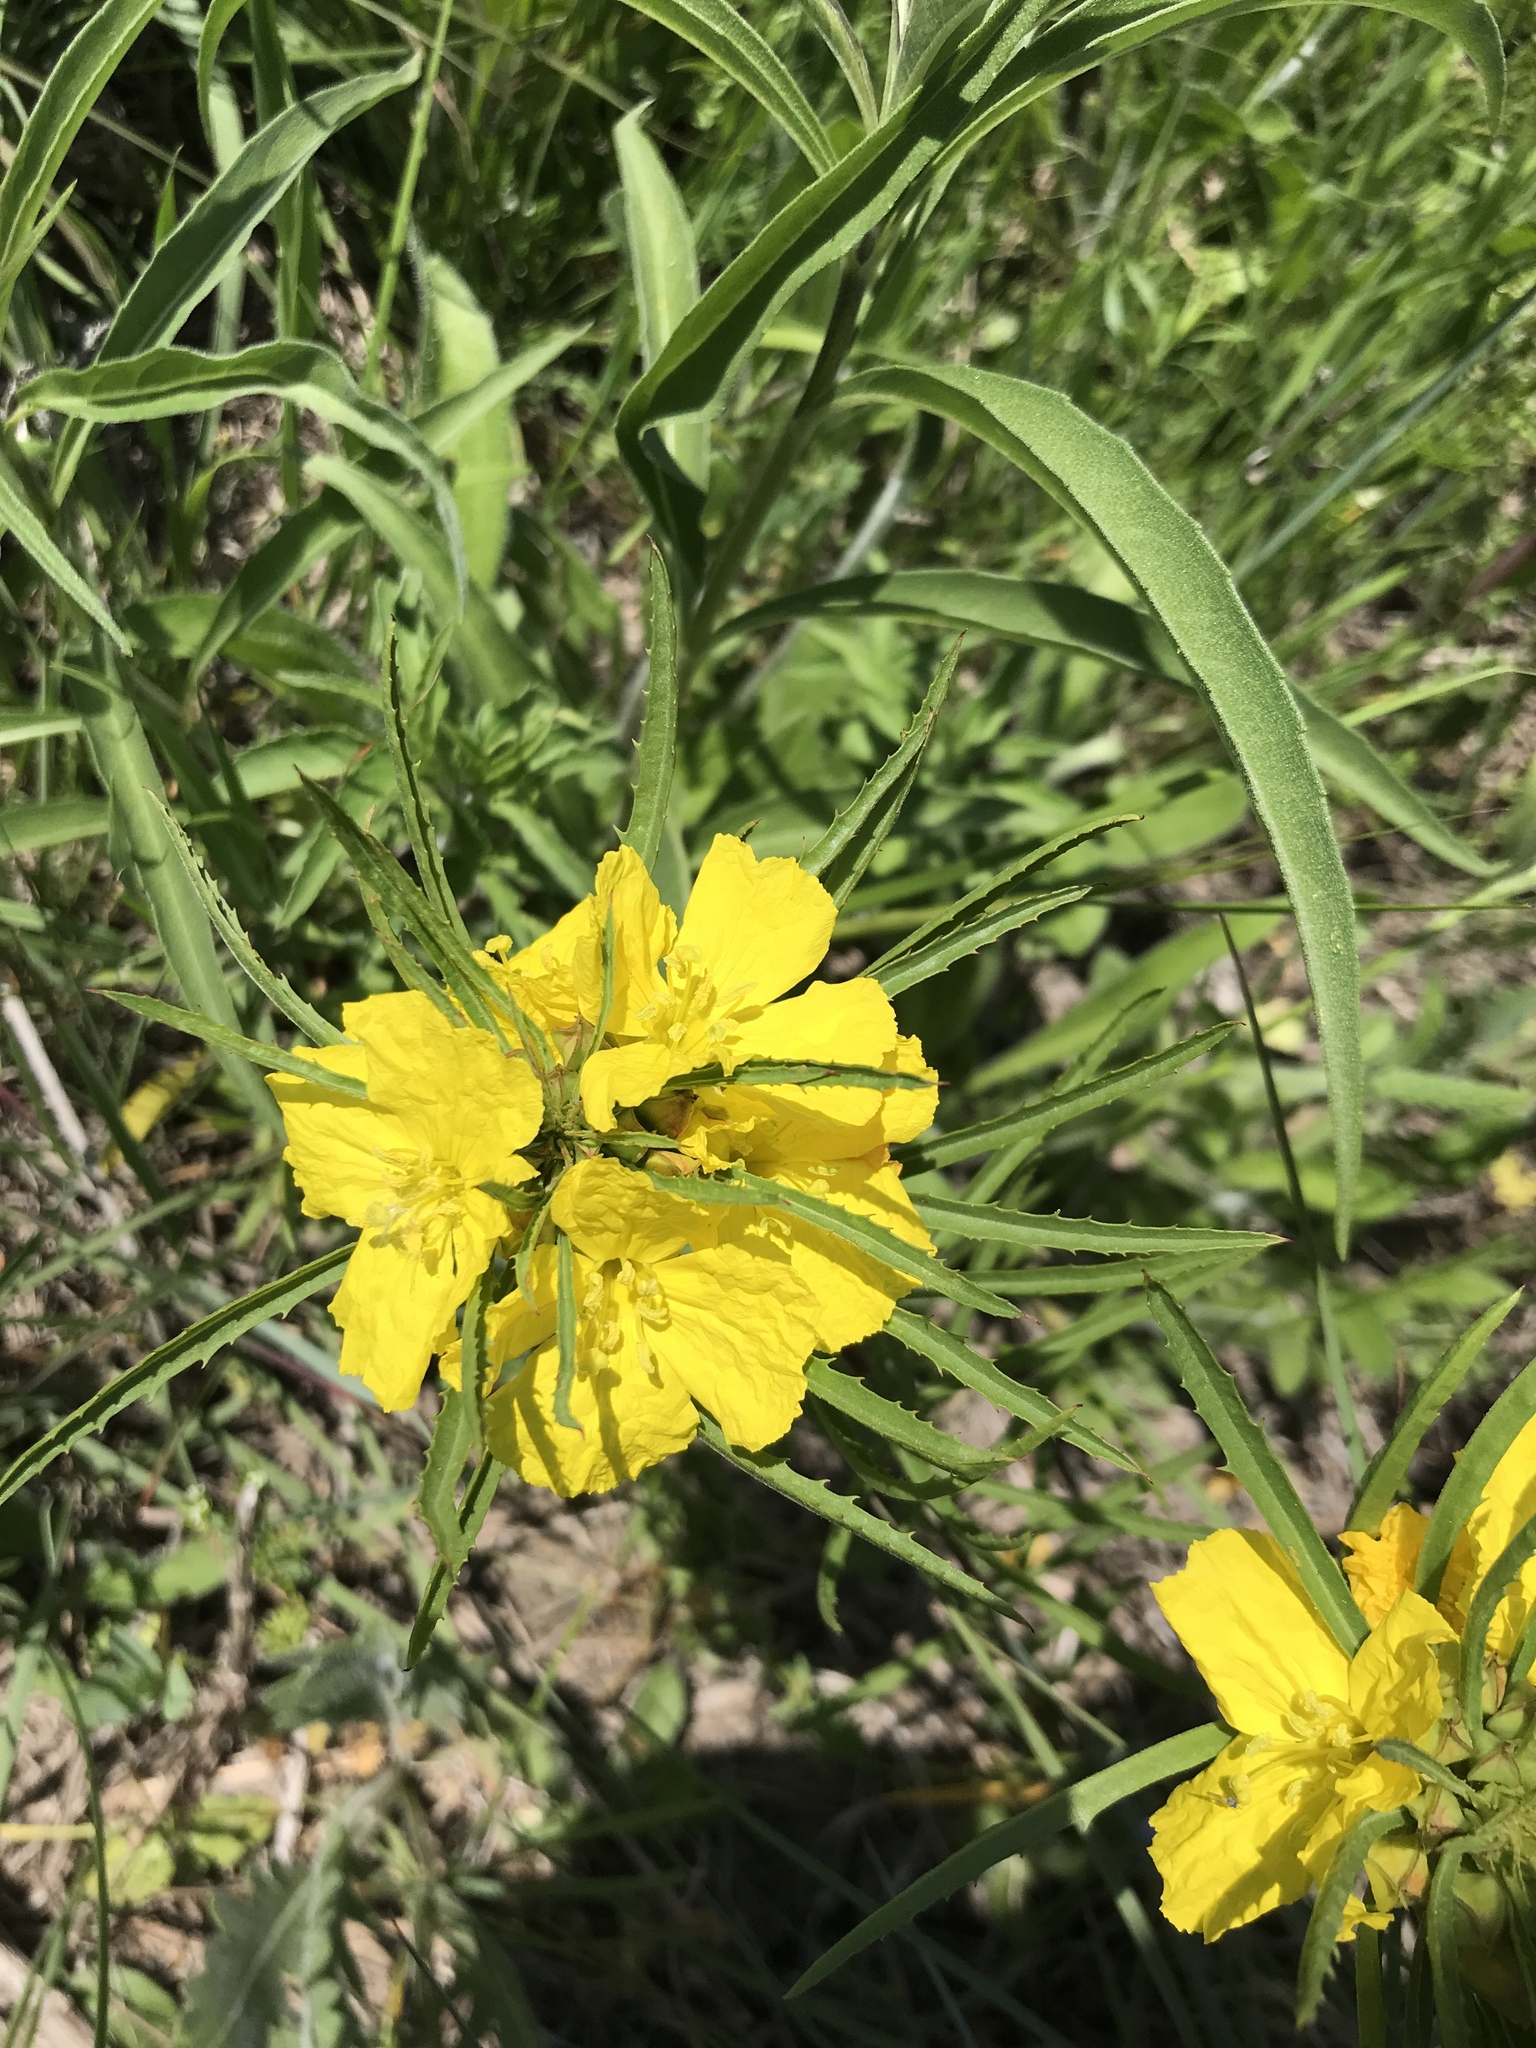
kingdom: Plantae
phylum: Tracheophyta
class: Magnoliopsida
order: Myrtales
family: Onagraceae
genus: Oenothera
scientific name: Oenothera
